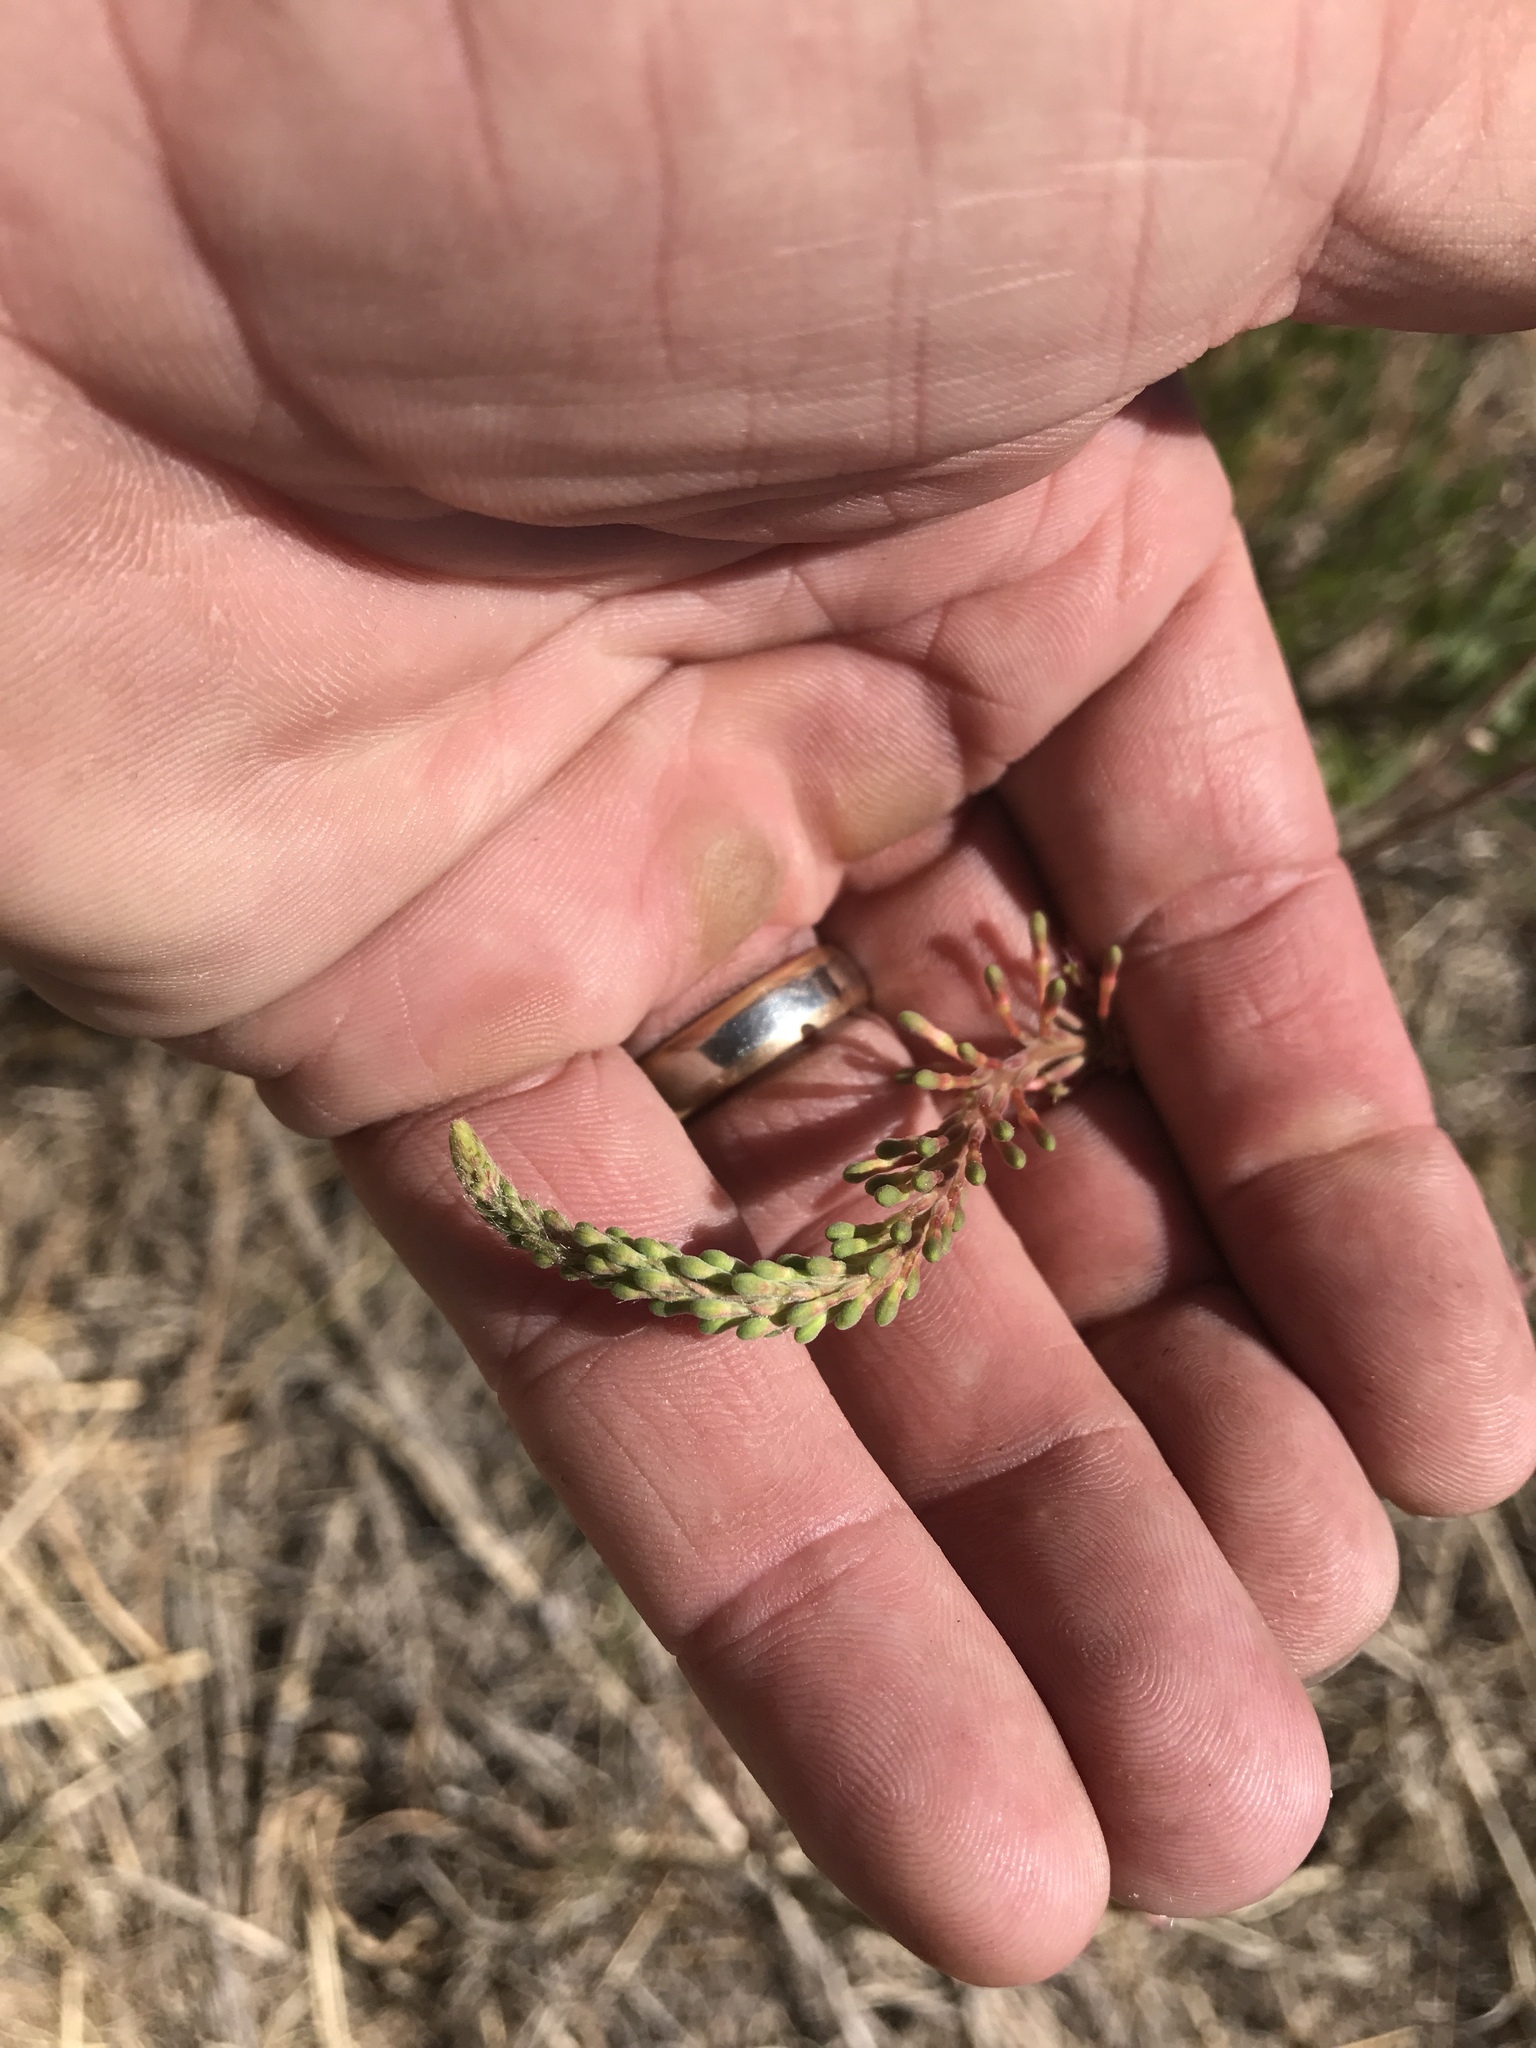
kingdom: Plantae
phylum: Tracheophyta
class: Magnoliopsida
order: Myrtales
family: Onagraceae
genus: Oenothera
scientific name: Oenothera curtiflora
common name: Velvetweed
